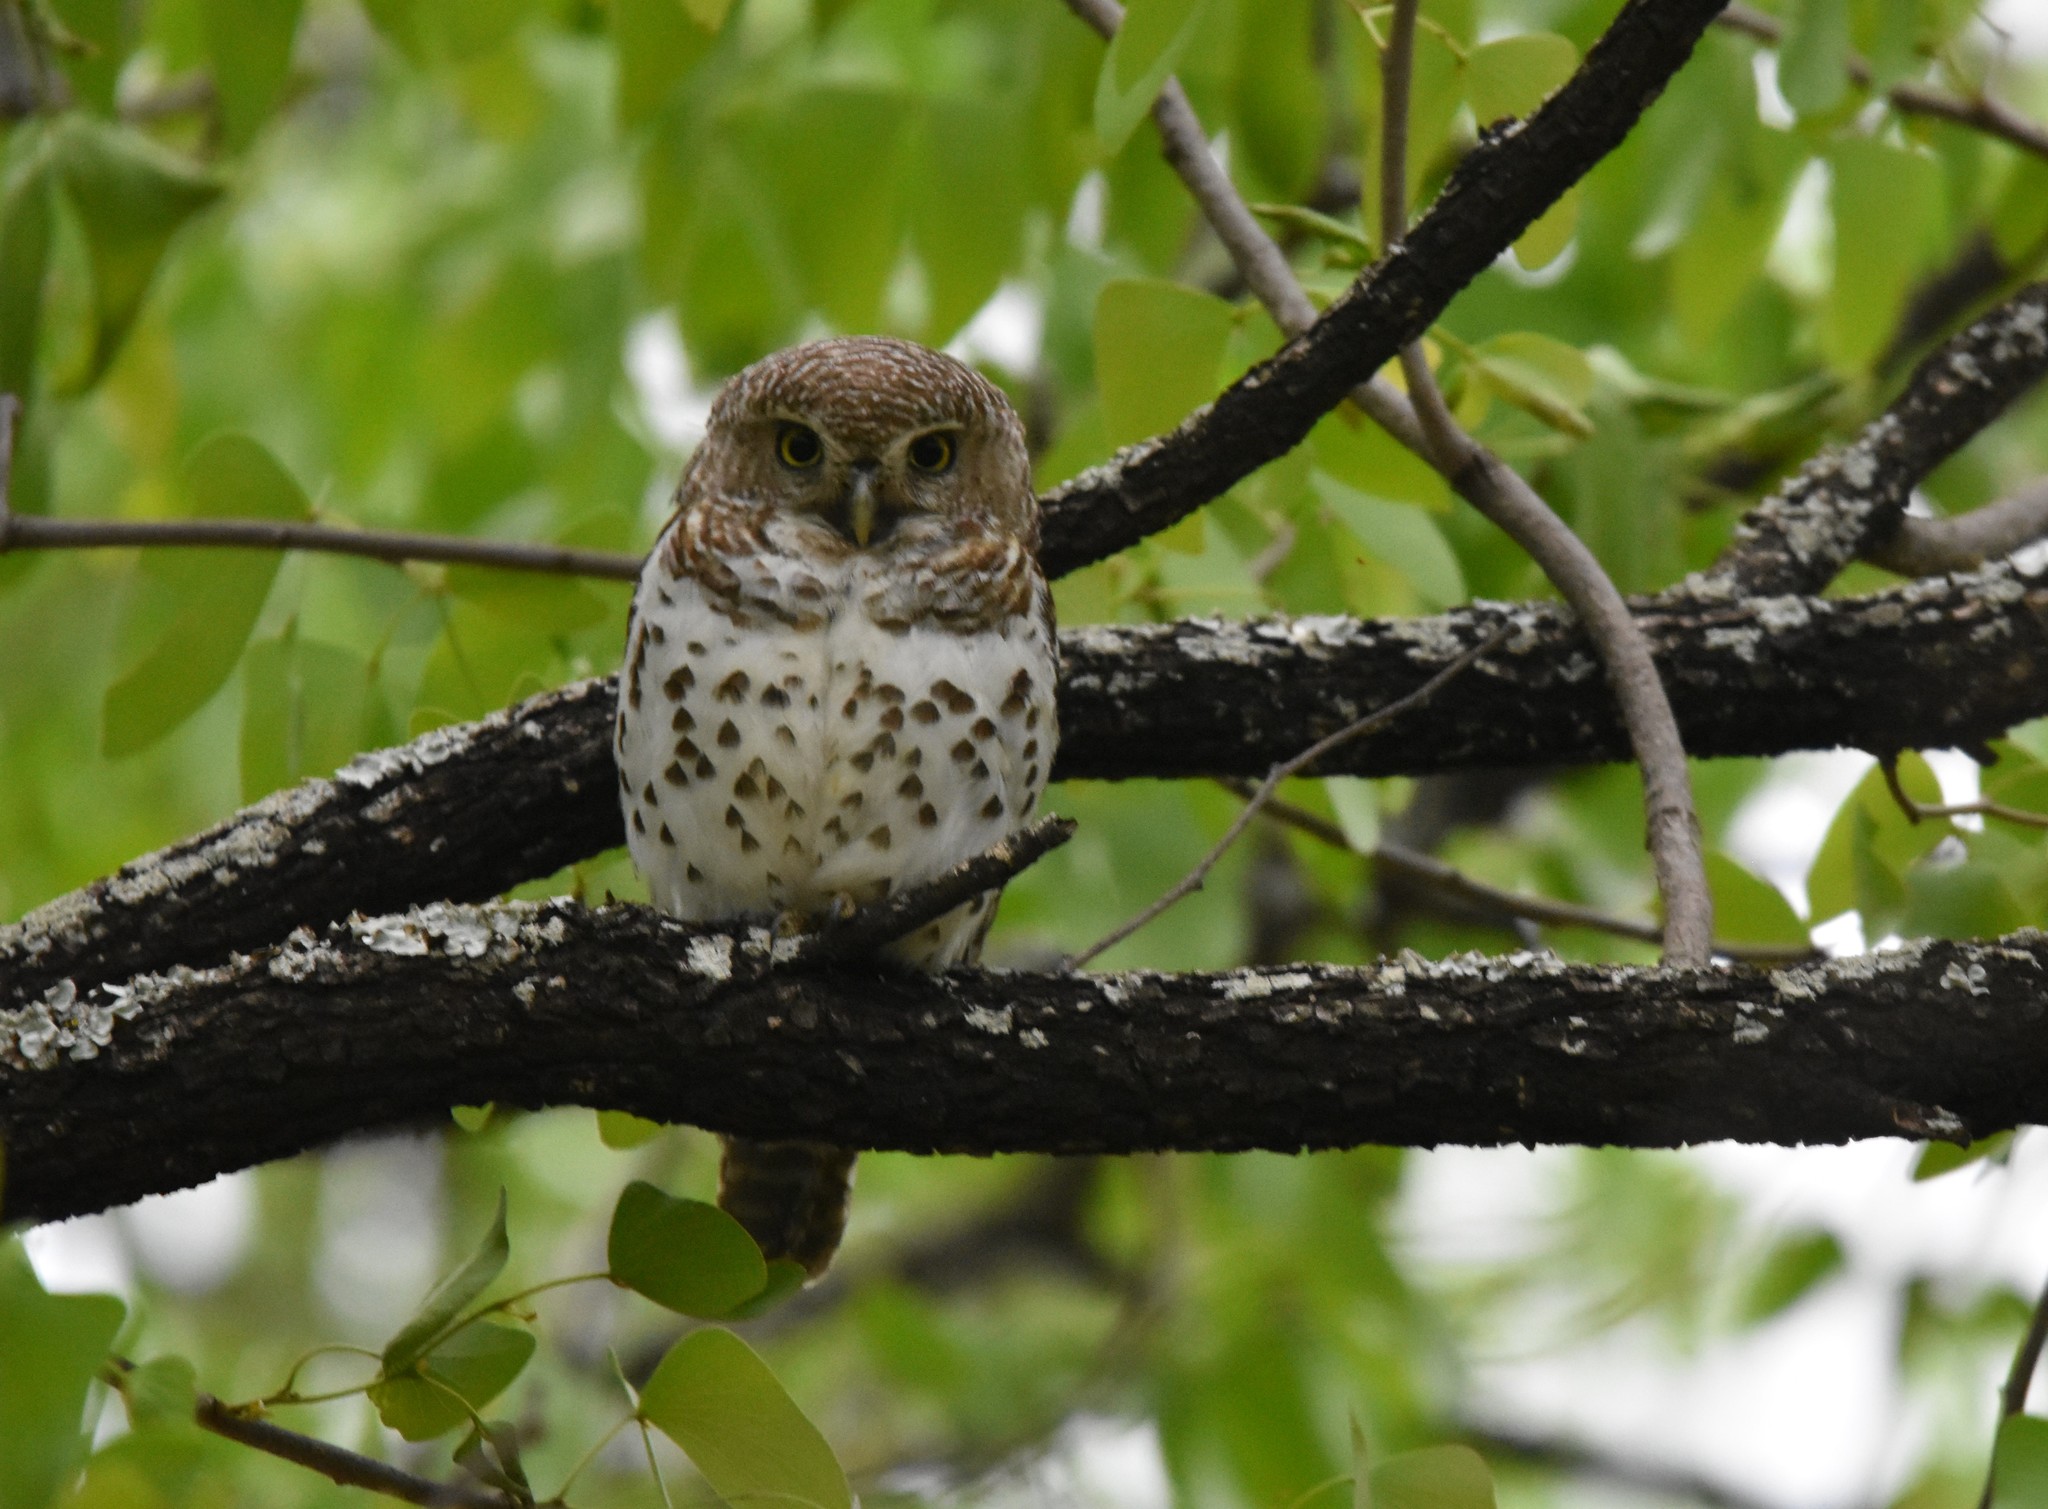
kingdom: Animalia
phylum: Chordata
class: Aves
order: Strigiformes
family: Strigidae
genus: Glaucidium
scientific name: Glaucidium capense
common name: African barred owlet
